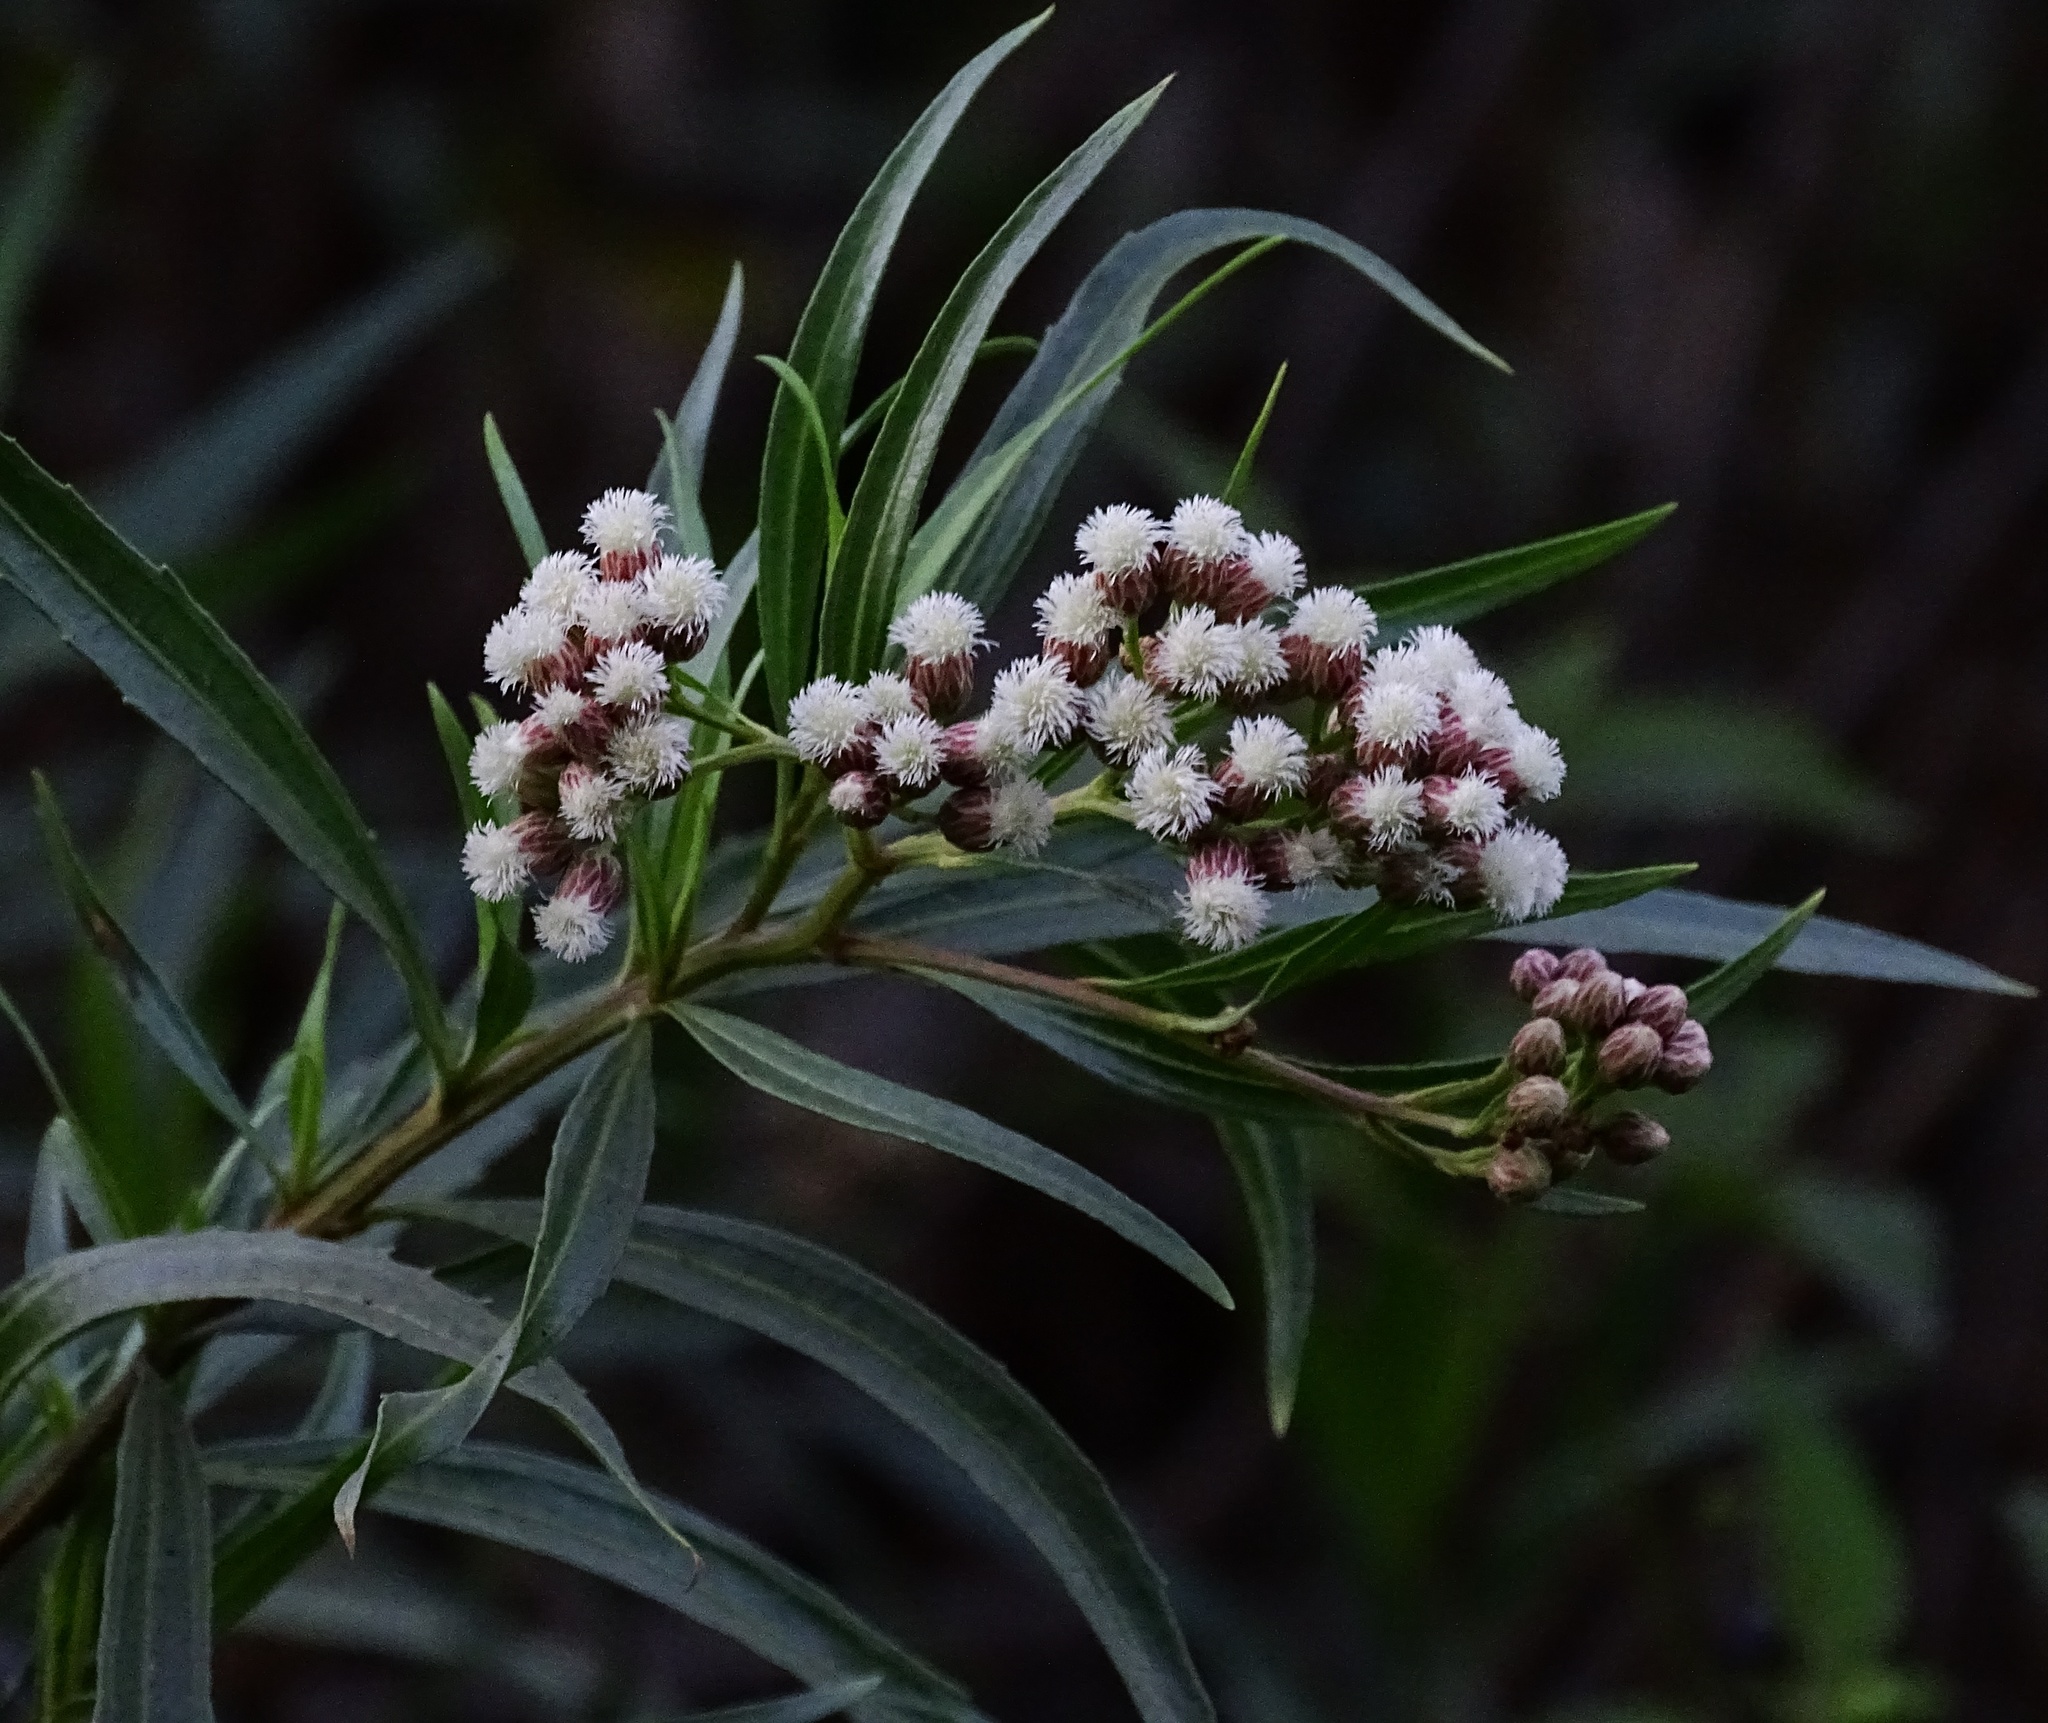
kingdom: Plantae
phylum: Tracheophyta
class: Magnoliopsida
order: Asterales
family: Asteraceae
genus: Baccharis
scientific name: Baccharis salicifolia
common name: Sticky baccharis
